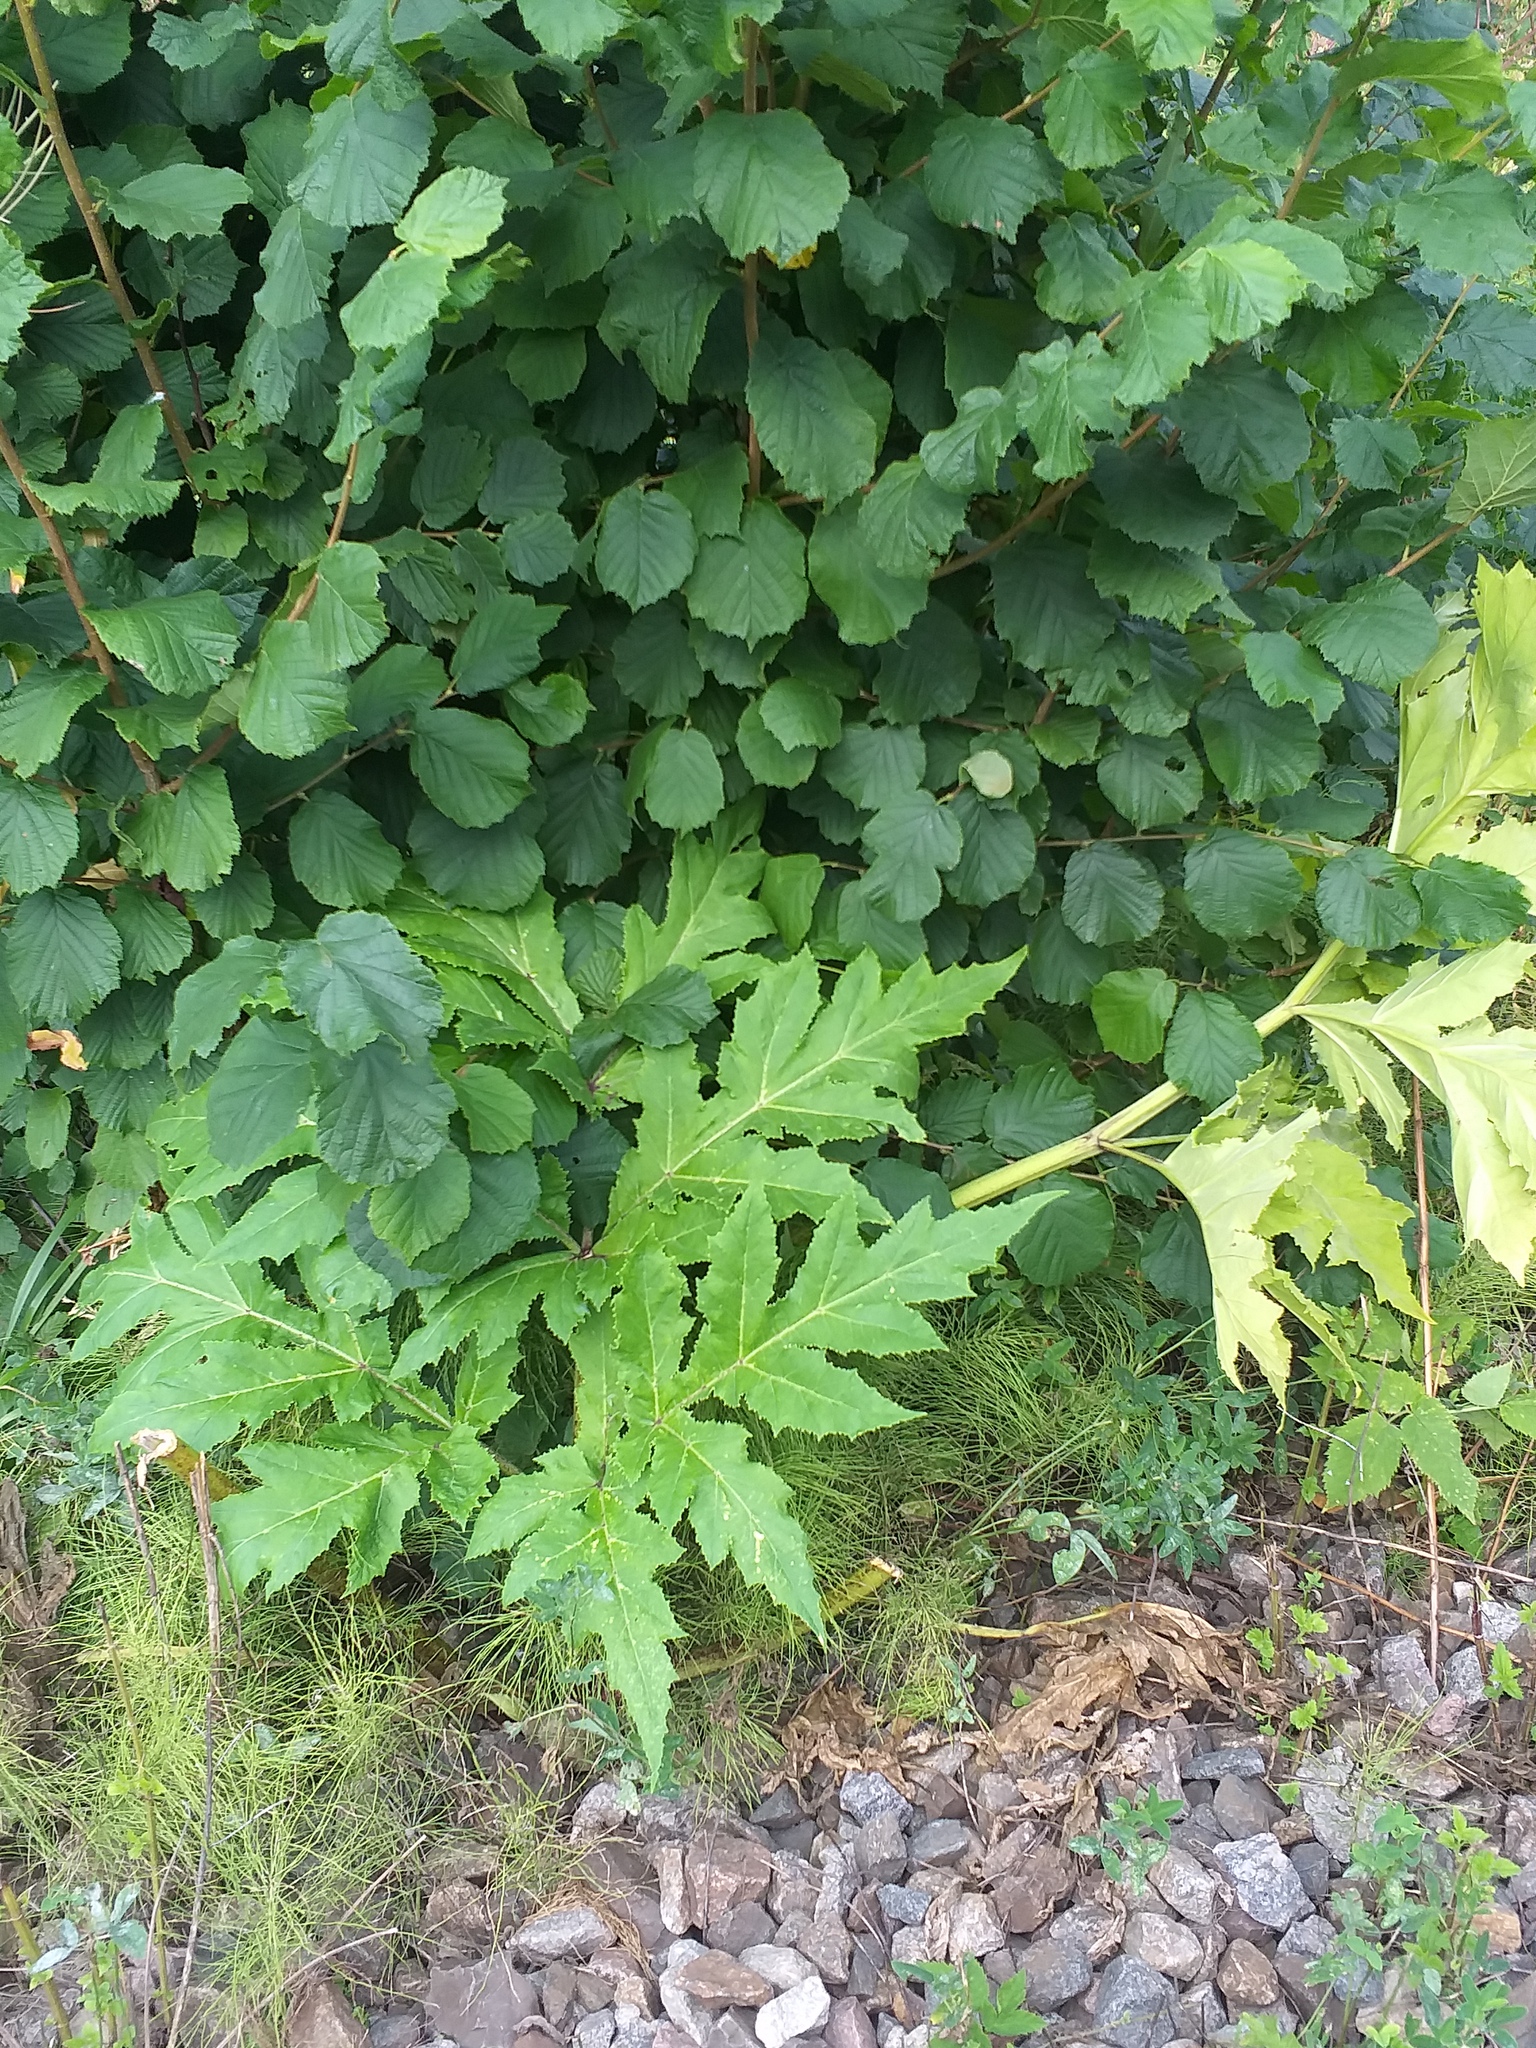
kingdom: Plantae
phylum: Tracheophyta
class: Magnoliopsida
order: Apiales
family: Apiaceae
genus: Heracleum
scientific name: Heracleum sosnowskyi
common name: Sosnowsky's hogweed
